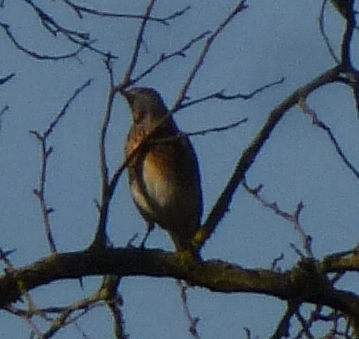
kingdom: Animalia
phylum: Chordata
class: Aves
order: Passeriformes
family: Turdidae
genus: Turdus
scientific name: Turdus pilaris
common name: Fieldfare
